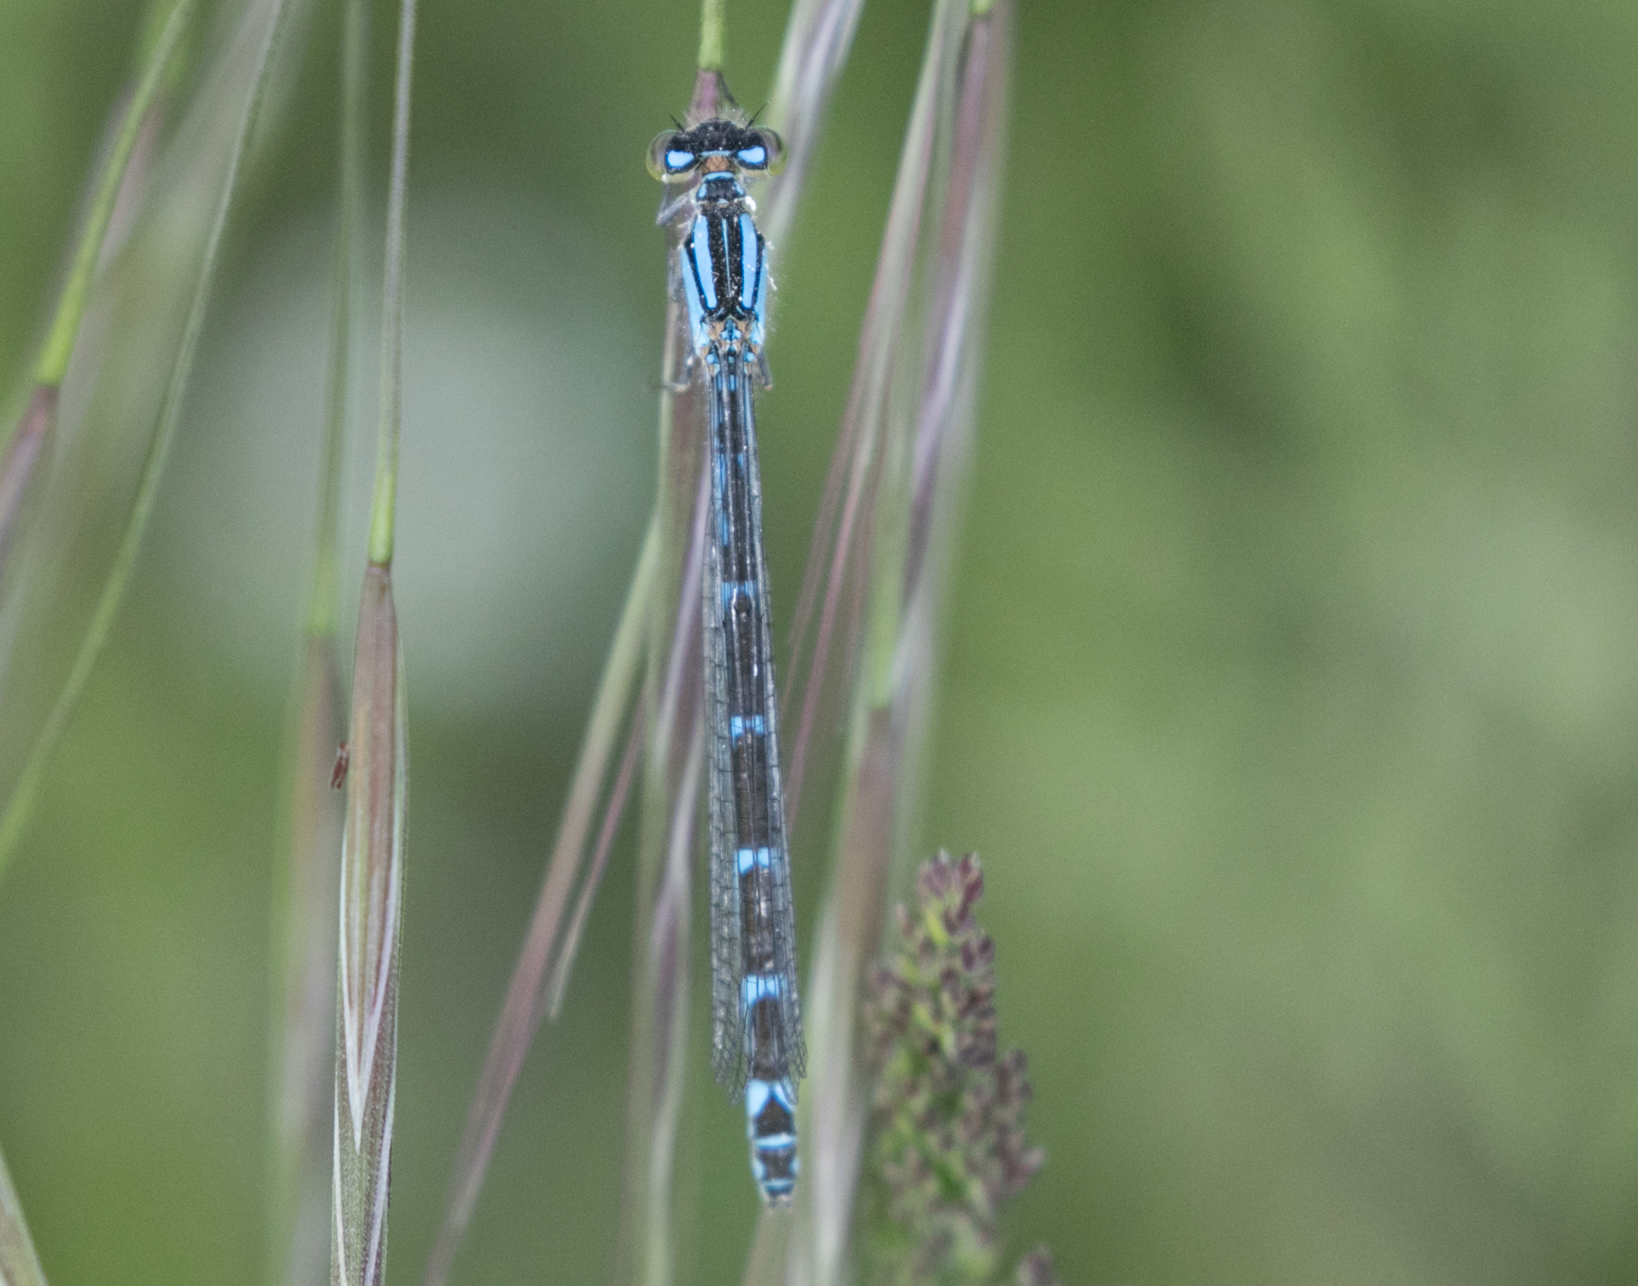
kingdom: Animalia
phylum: Arthropoda
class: Insecta
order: Odonata
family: Coenagrionidae
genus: Enallagma
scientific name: Enallagma cyathigerum
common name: Common blue damselfly
